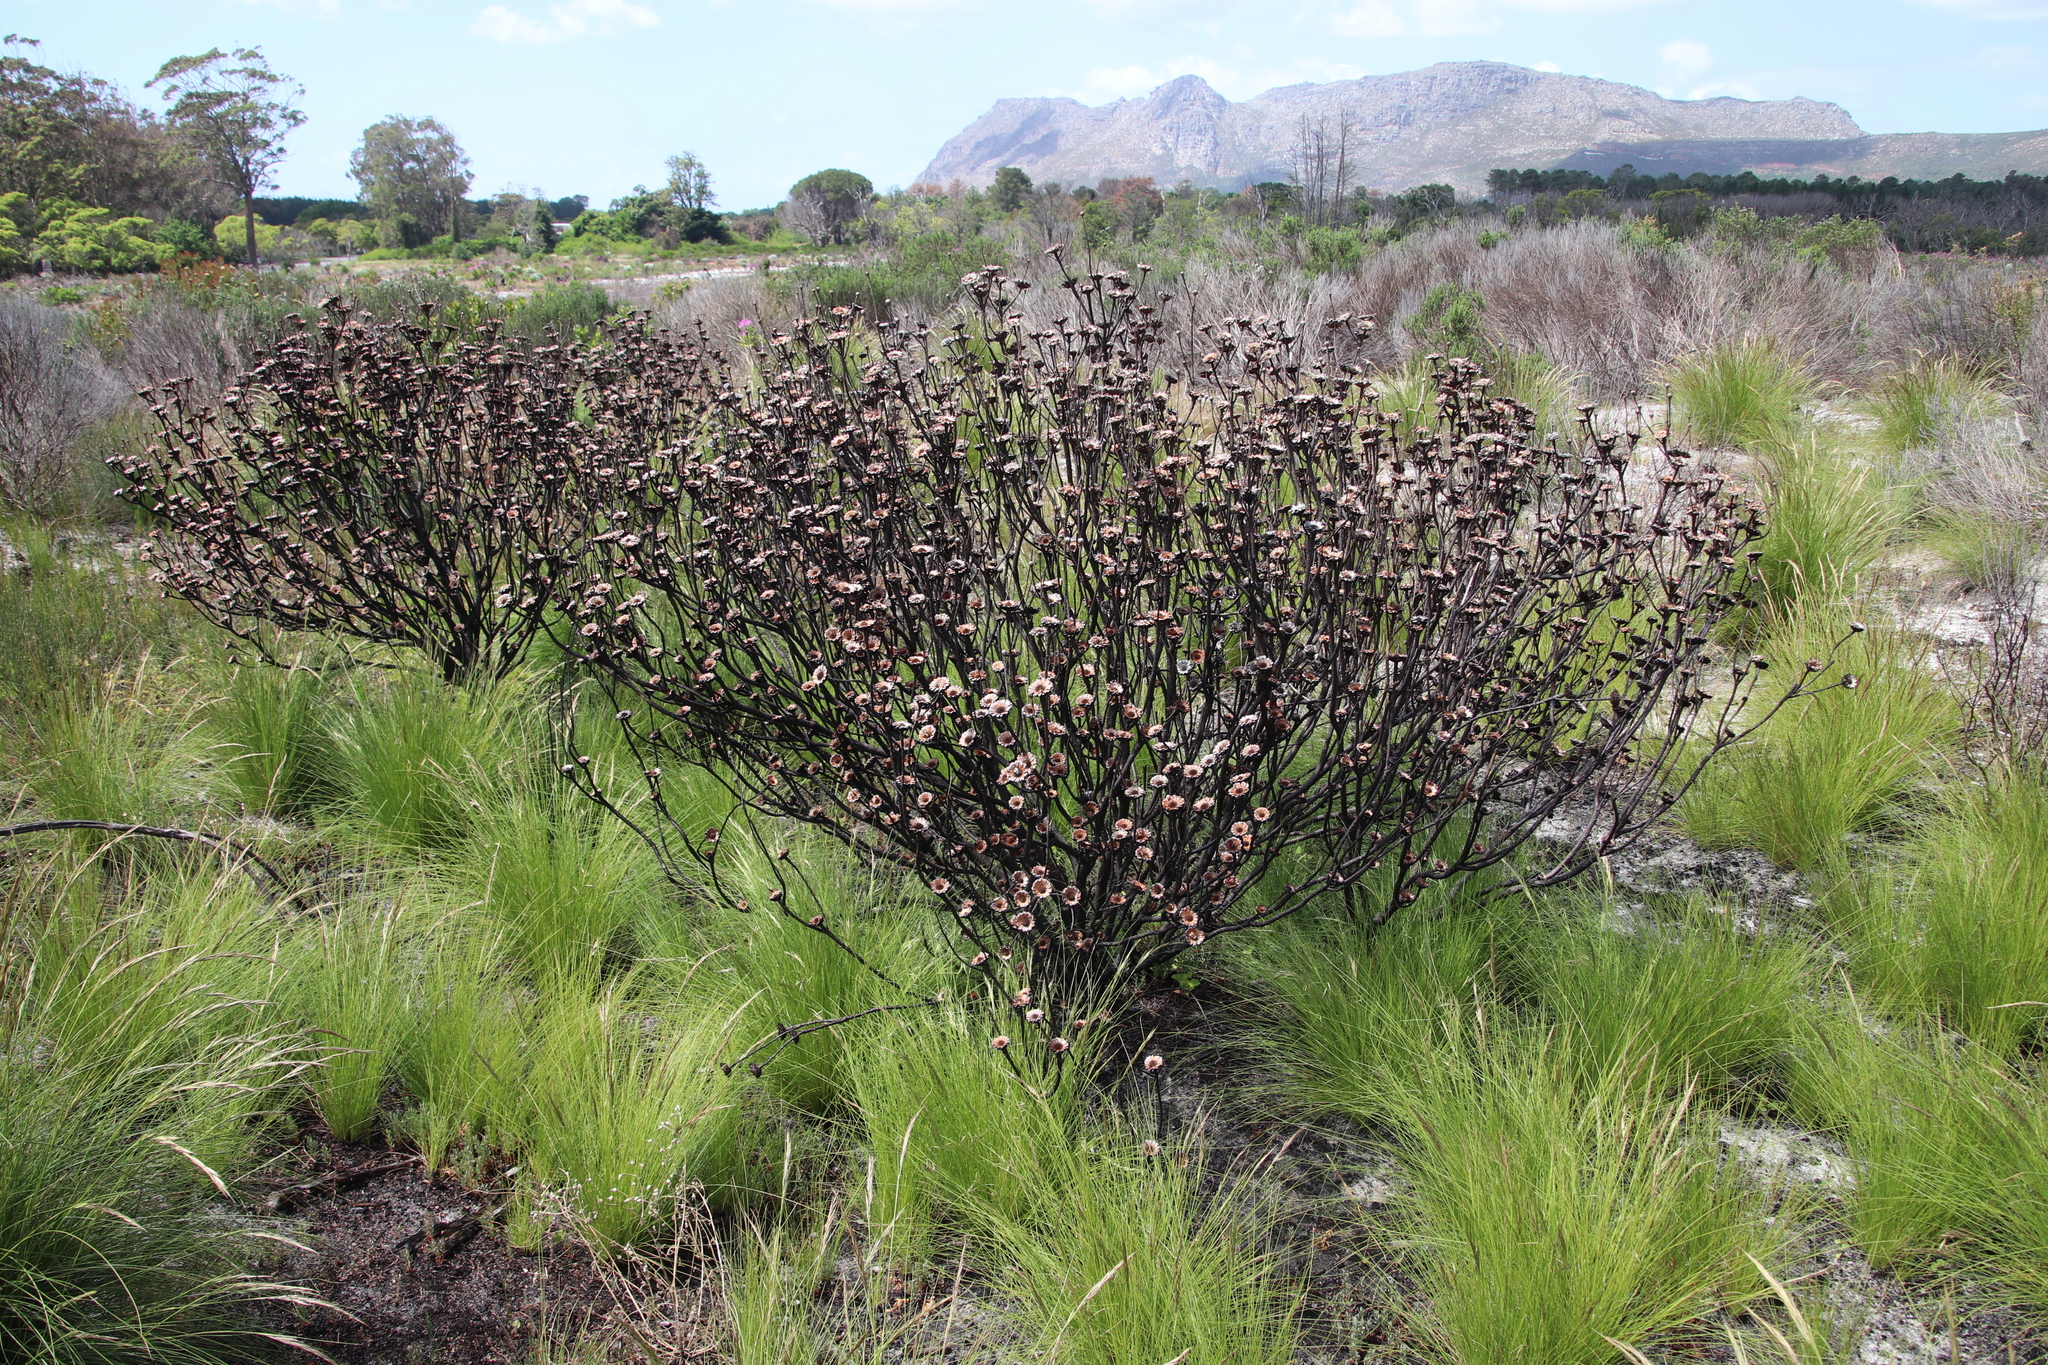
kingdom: Plantae
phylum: Tracheophyta
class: Magnoliopsida
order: Proteales
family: Proteaceae
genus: Protea
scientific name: Protea scolymocephala
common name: Thistle sugarbush
